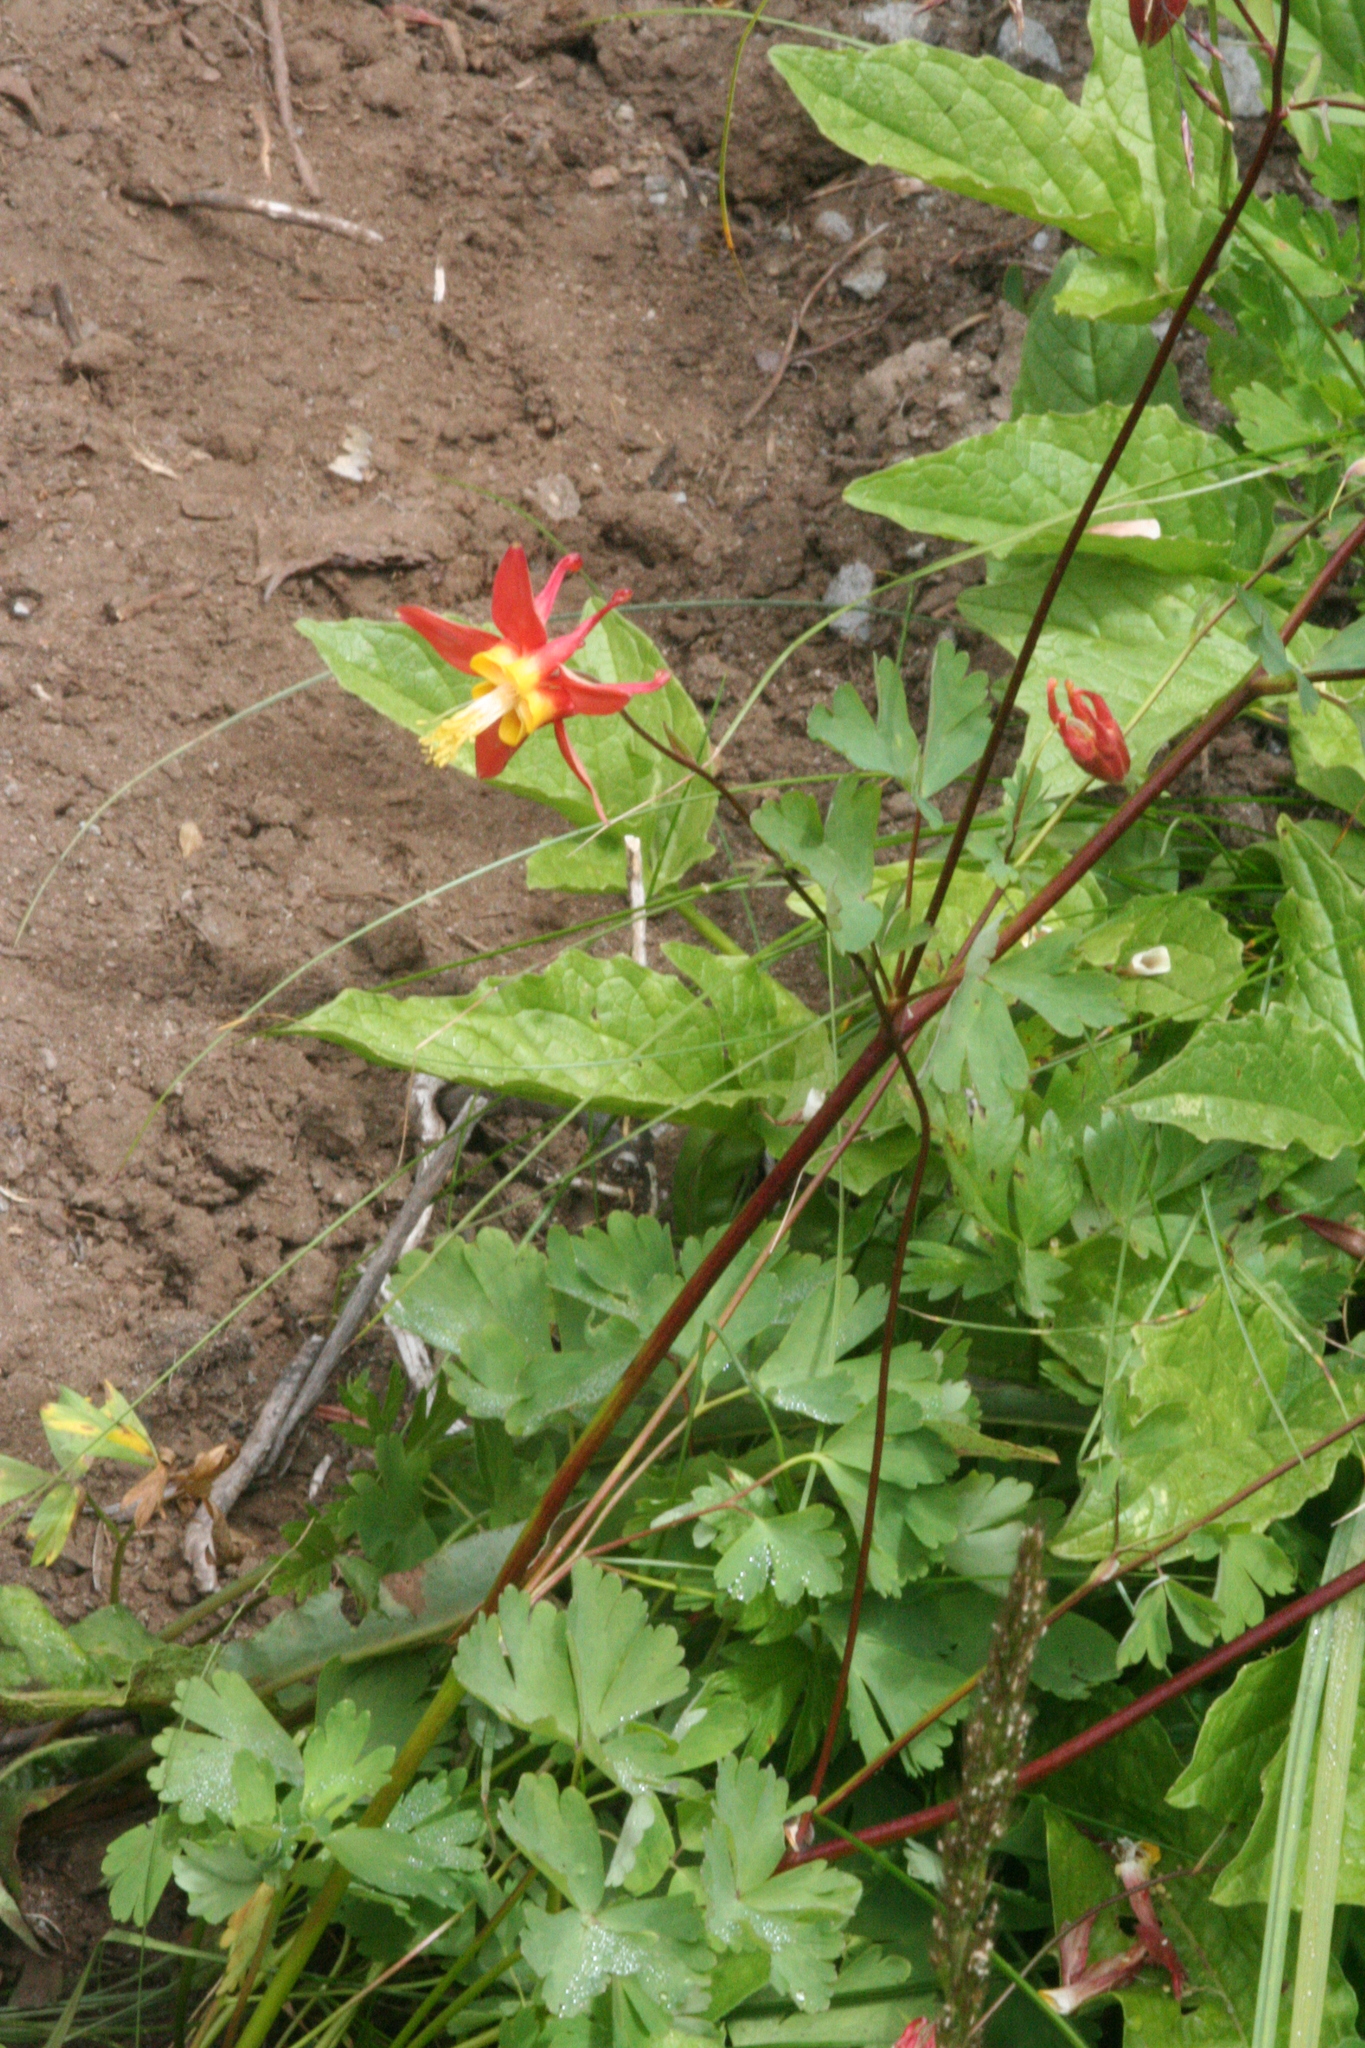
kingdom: Plantae
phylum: Tracheophyta
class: Magnoliopsida
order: Ranunculales
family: Ranunculaceae
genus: Aquilegia
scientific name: Aquilegia formosa
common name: Sitka columbine
